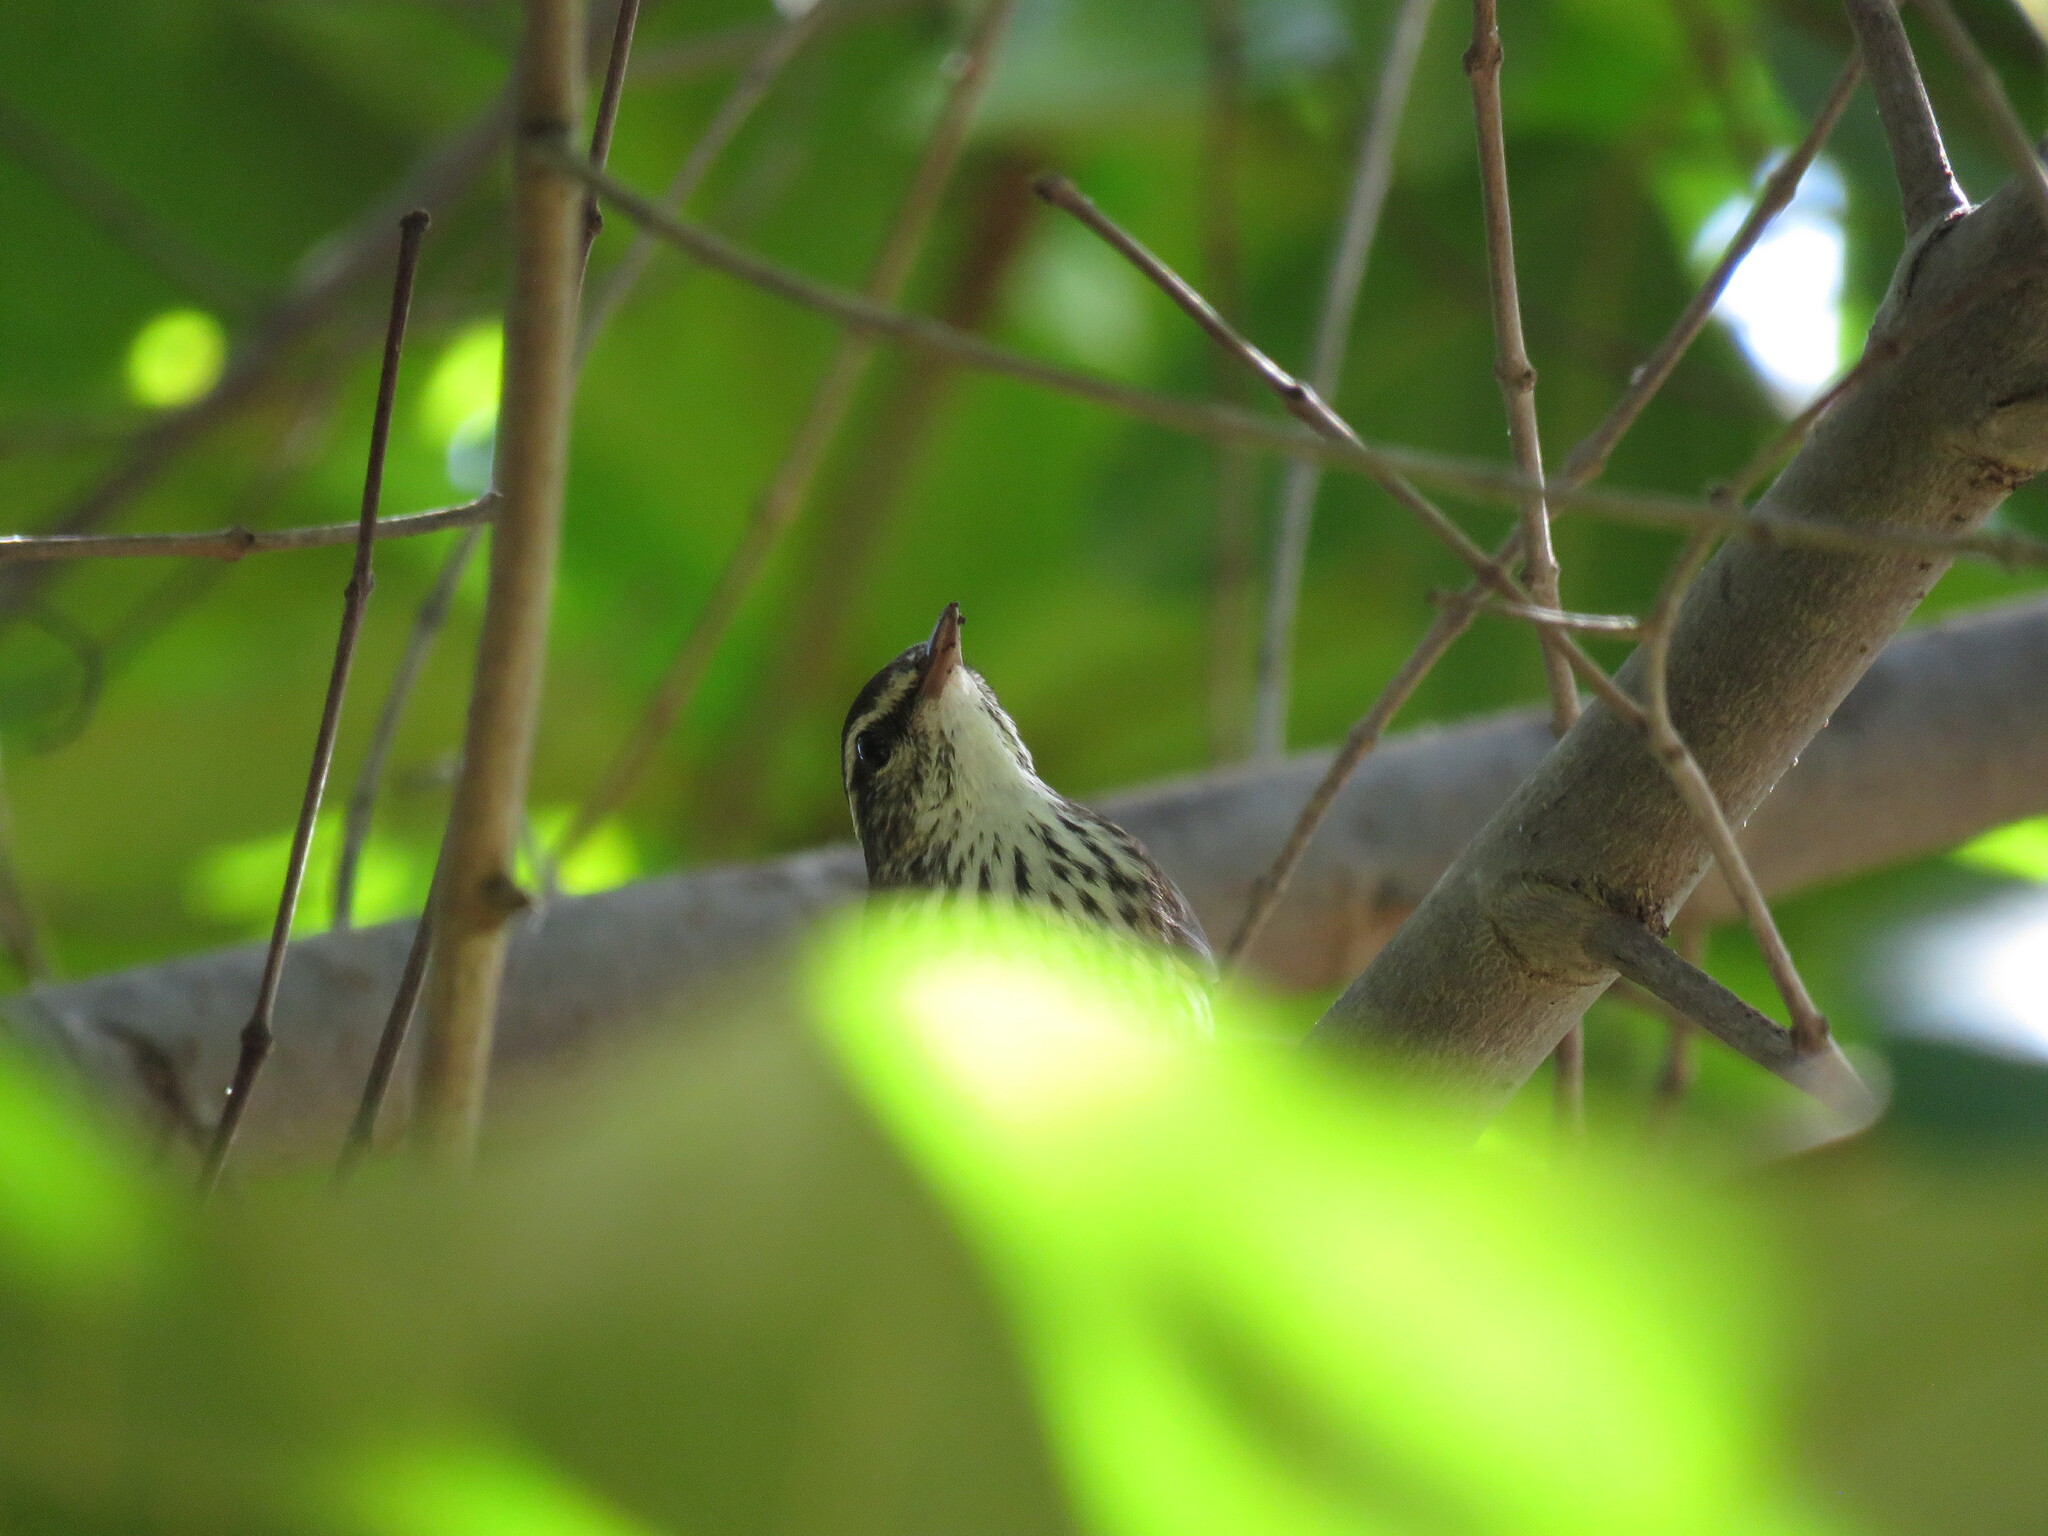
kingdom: Animalia
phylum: Chordata
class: Aves
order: Passeriformes
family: Parulidae
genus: Parkesia
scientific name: Parkesia motacilla
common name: Louisiana waterthrush
